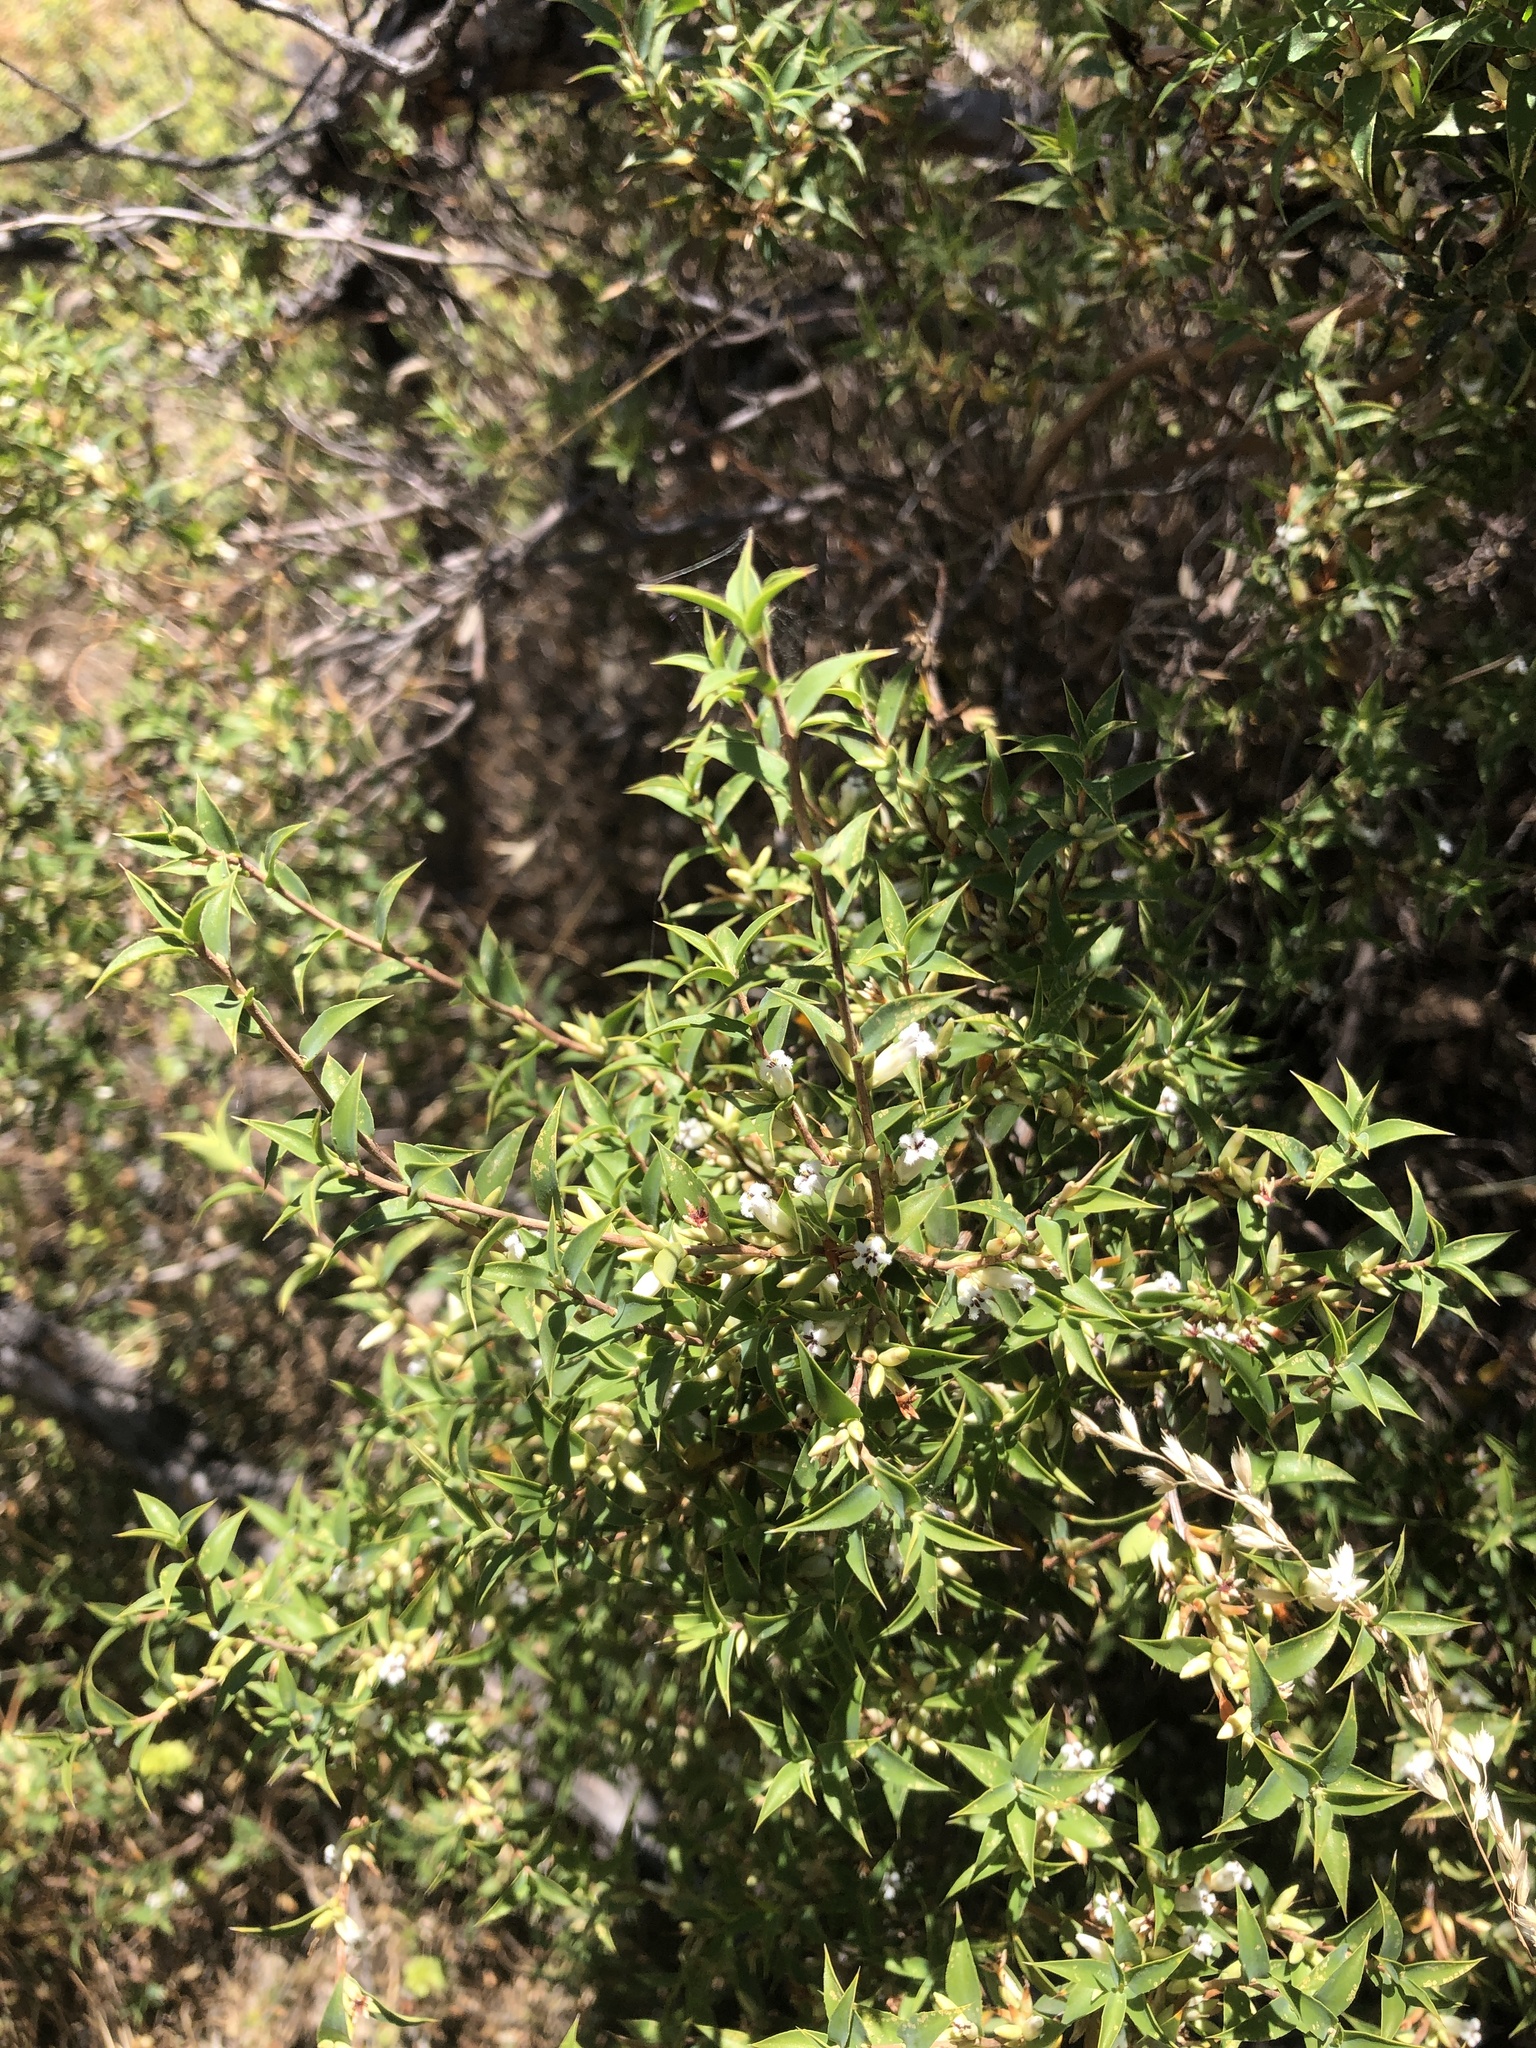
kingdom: Plantae
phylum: Tracheophyta
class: Magnoliopsida
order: Ericales
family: Ericaceae
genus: Styphelia
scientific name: Styphelia rufa
